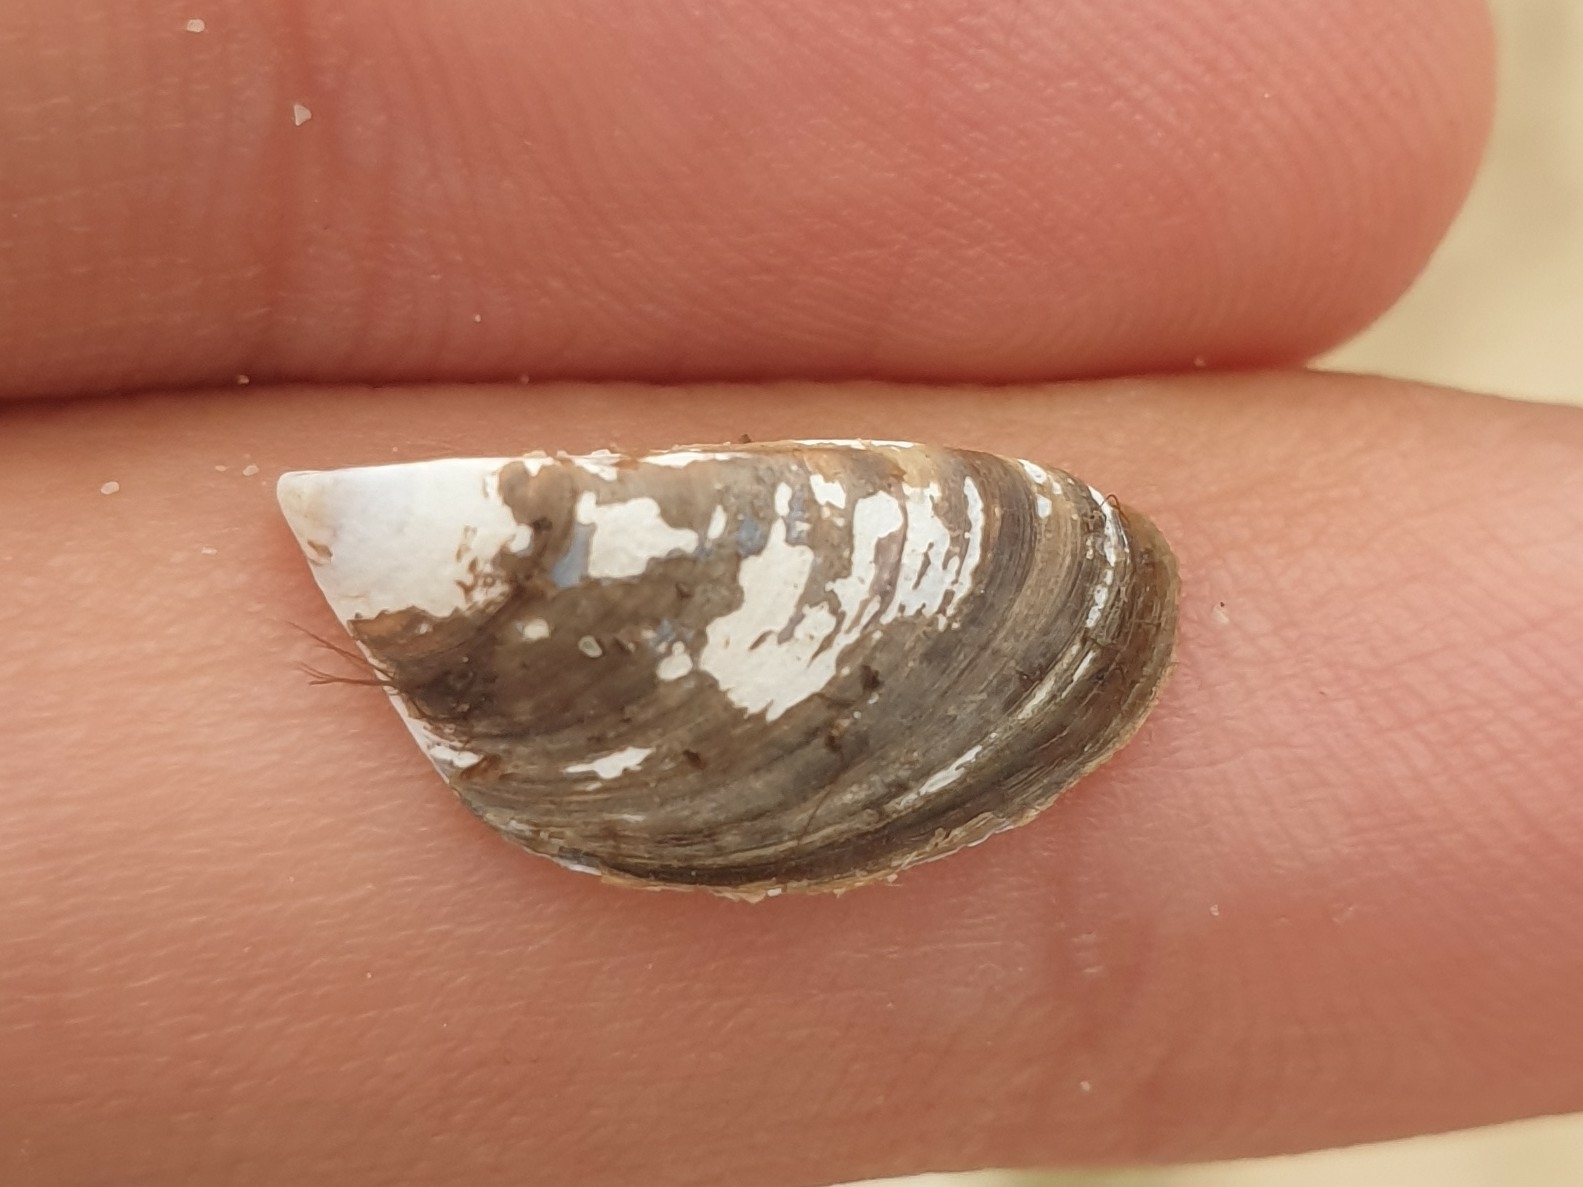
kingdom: Animalia
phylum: Mollusca
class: Bivalvia
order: Myida
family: Dreissenidae
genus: Dreissena
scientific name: Dreissena polymorpha
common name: Zebra mussel
